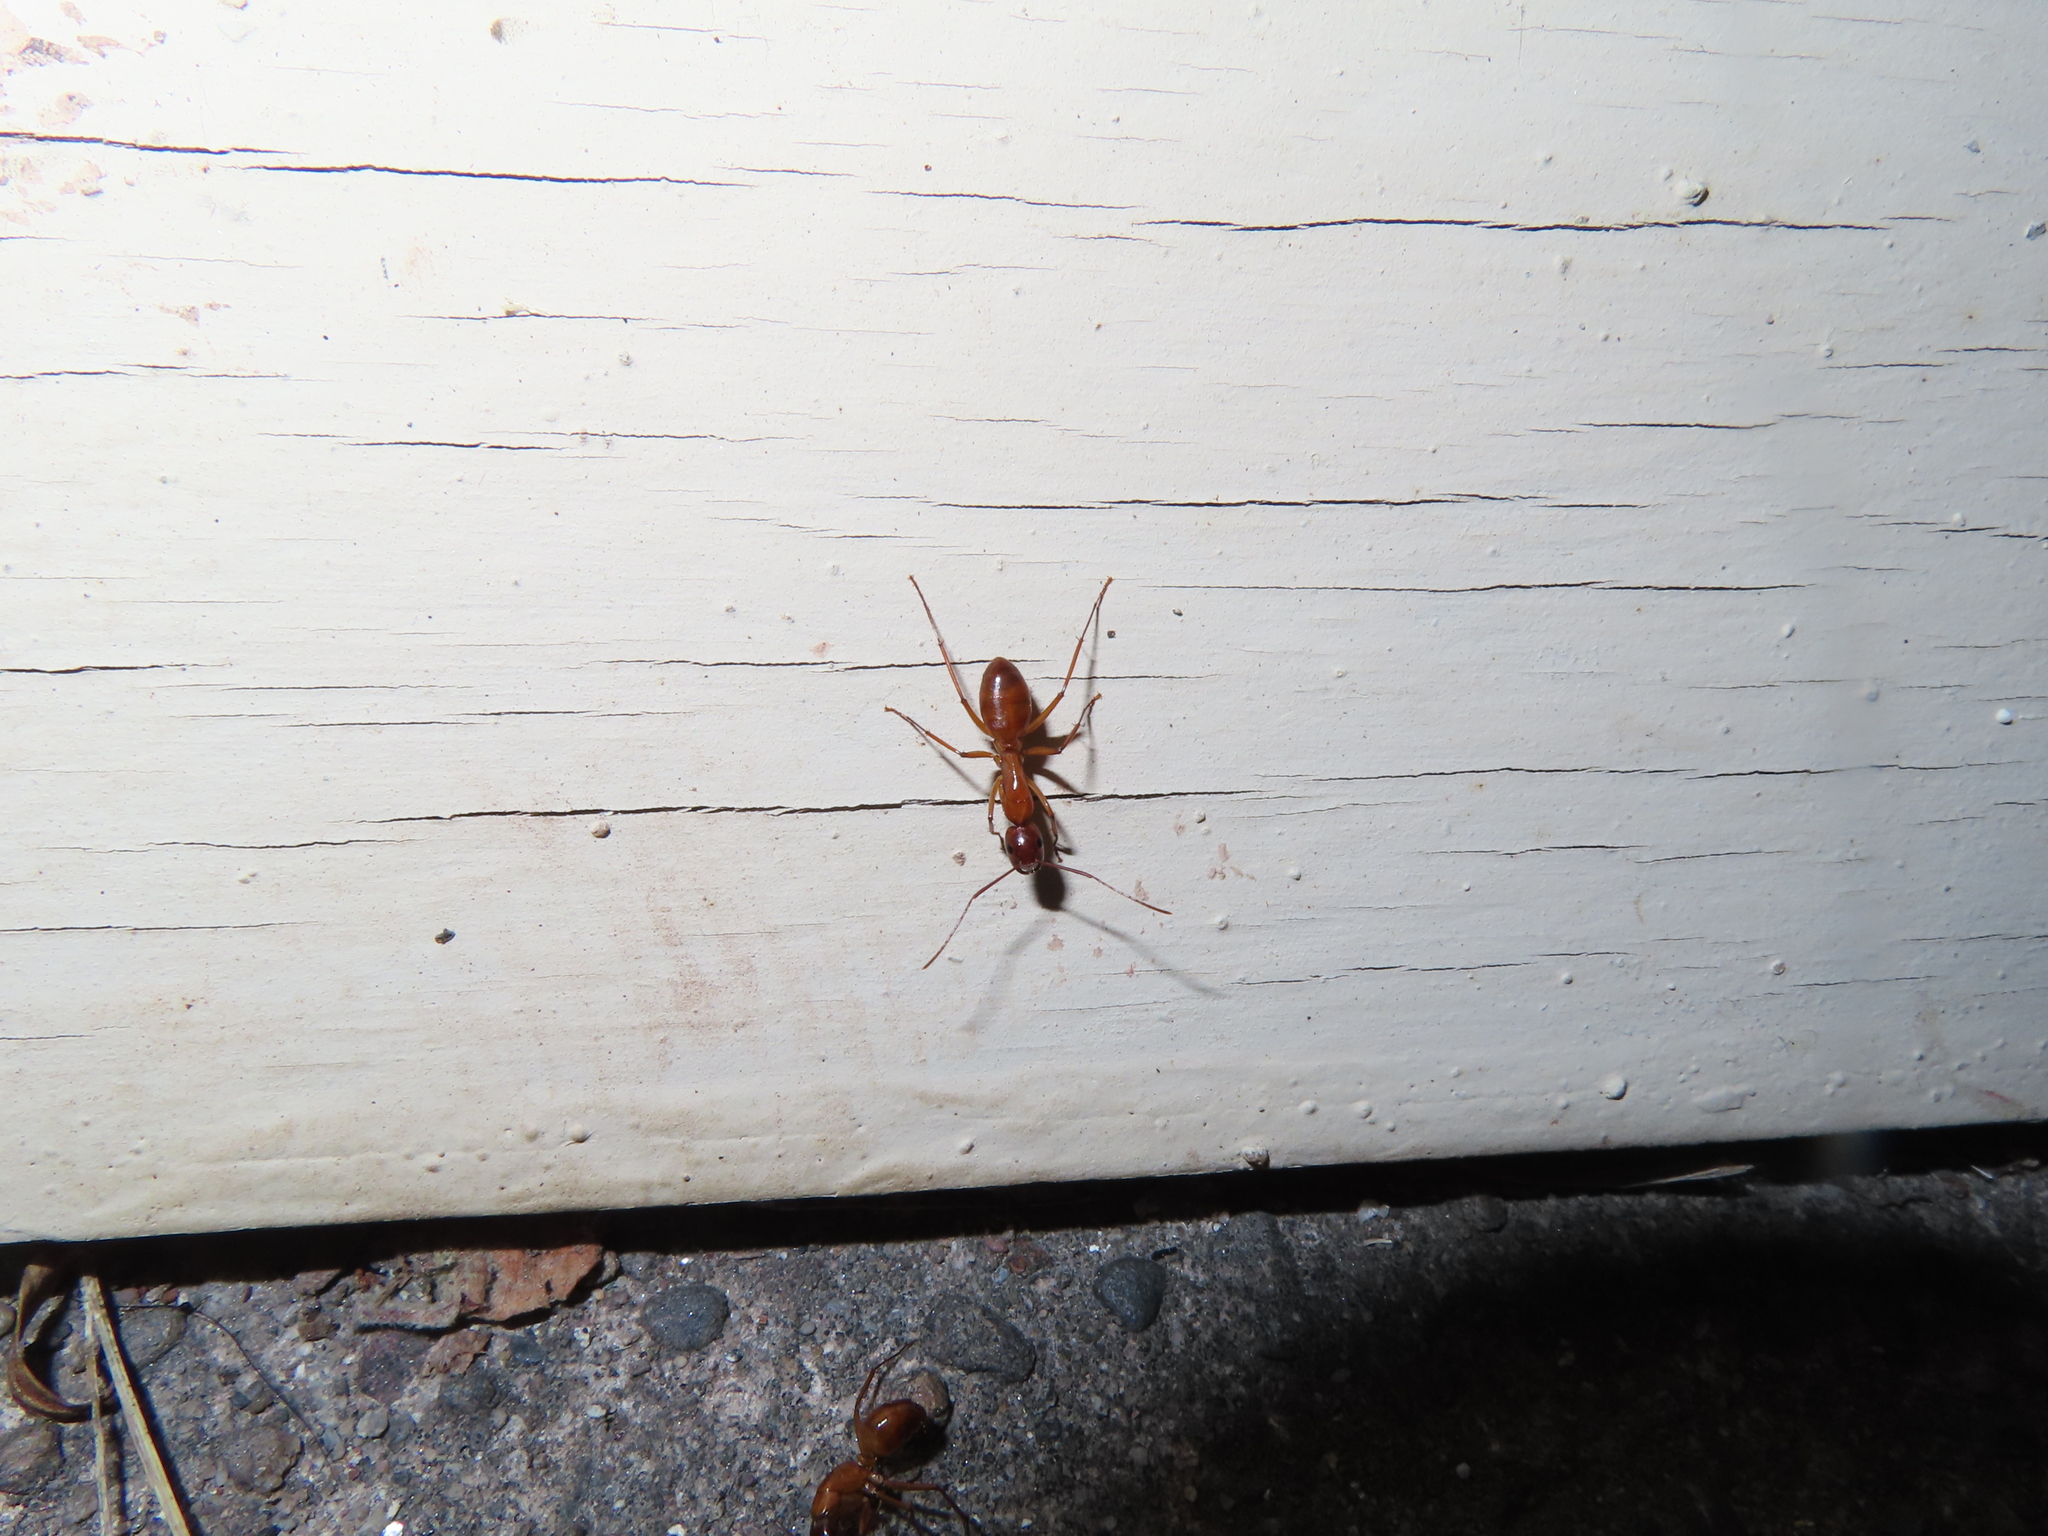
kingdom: Animalia
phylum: Arthropoda
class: Insecta
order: Hymenoptera
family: Formicidae
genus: Camponotus
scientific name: Camponotus castaneus
